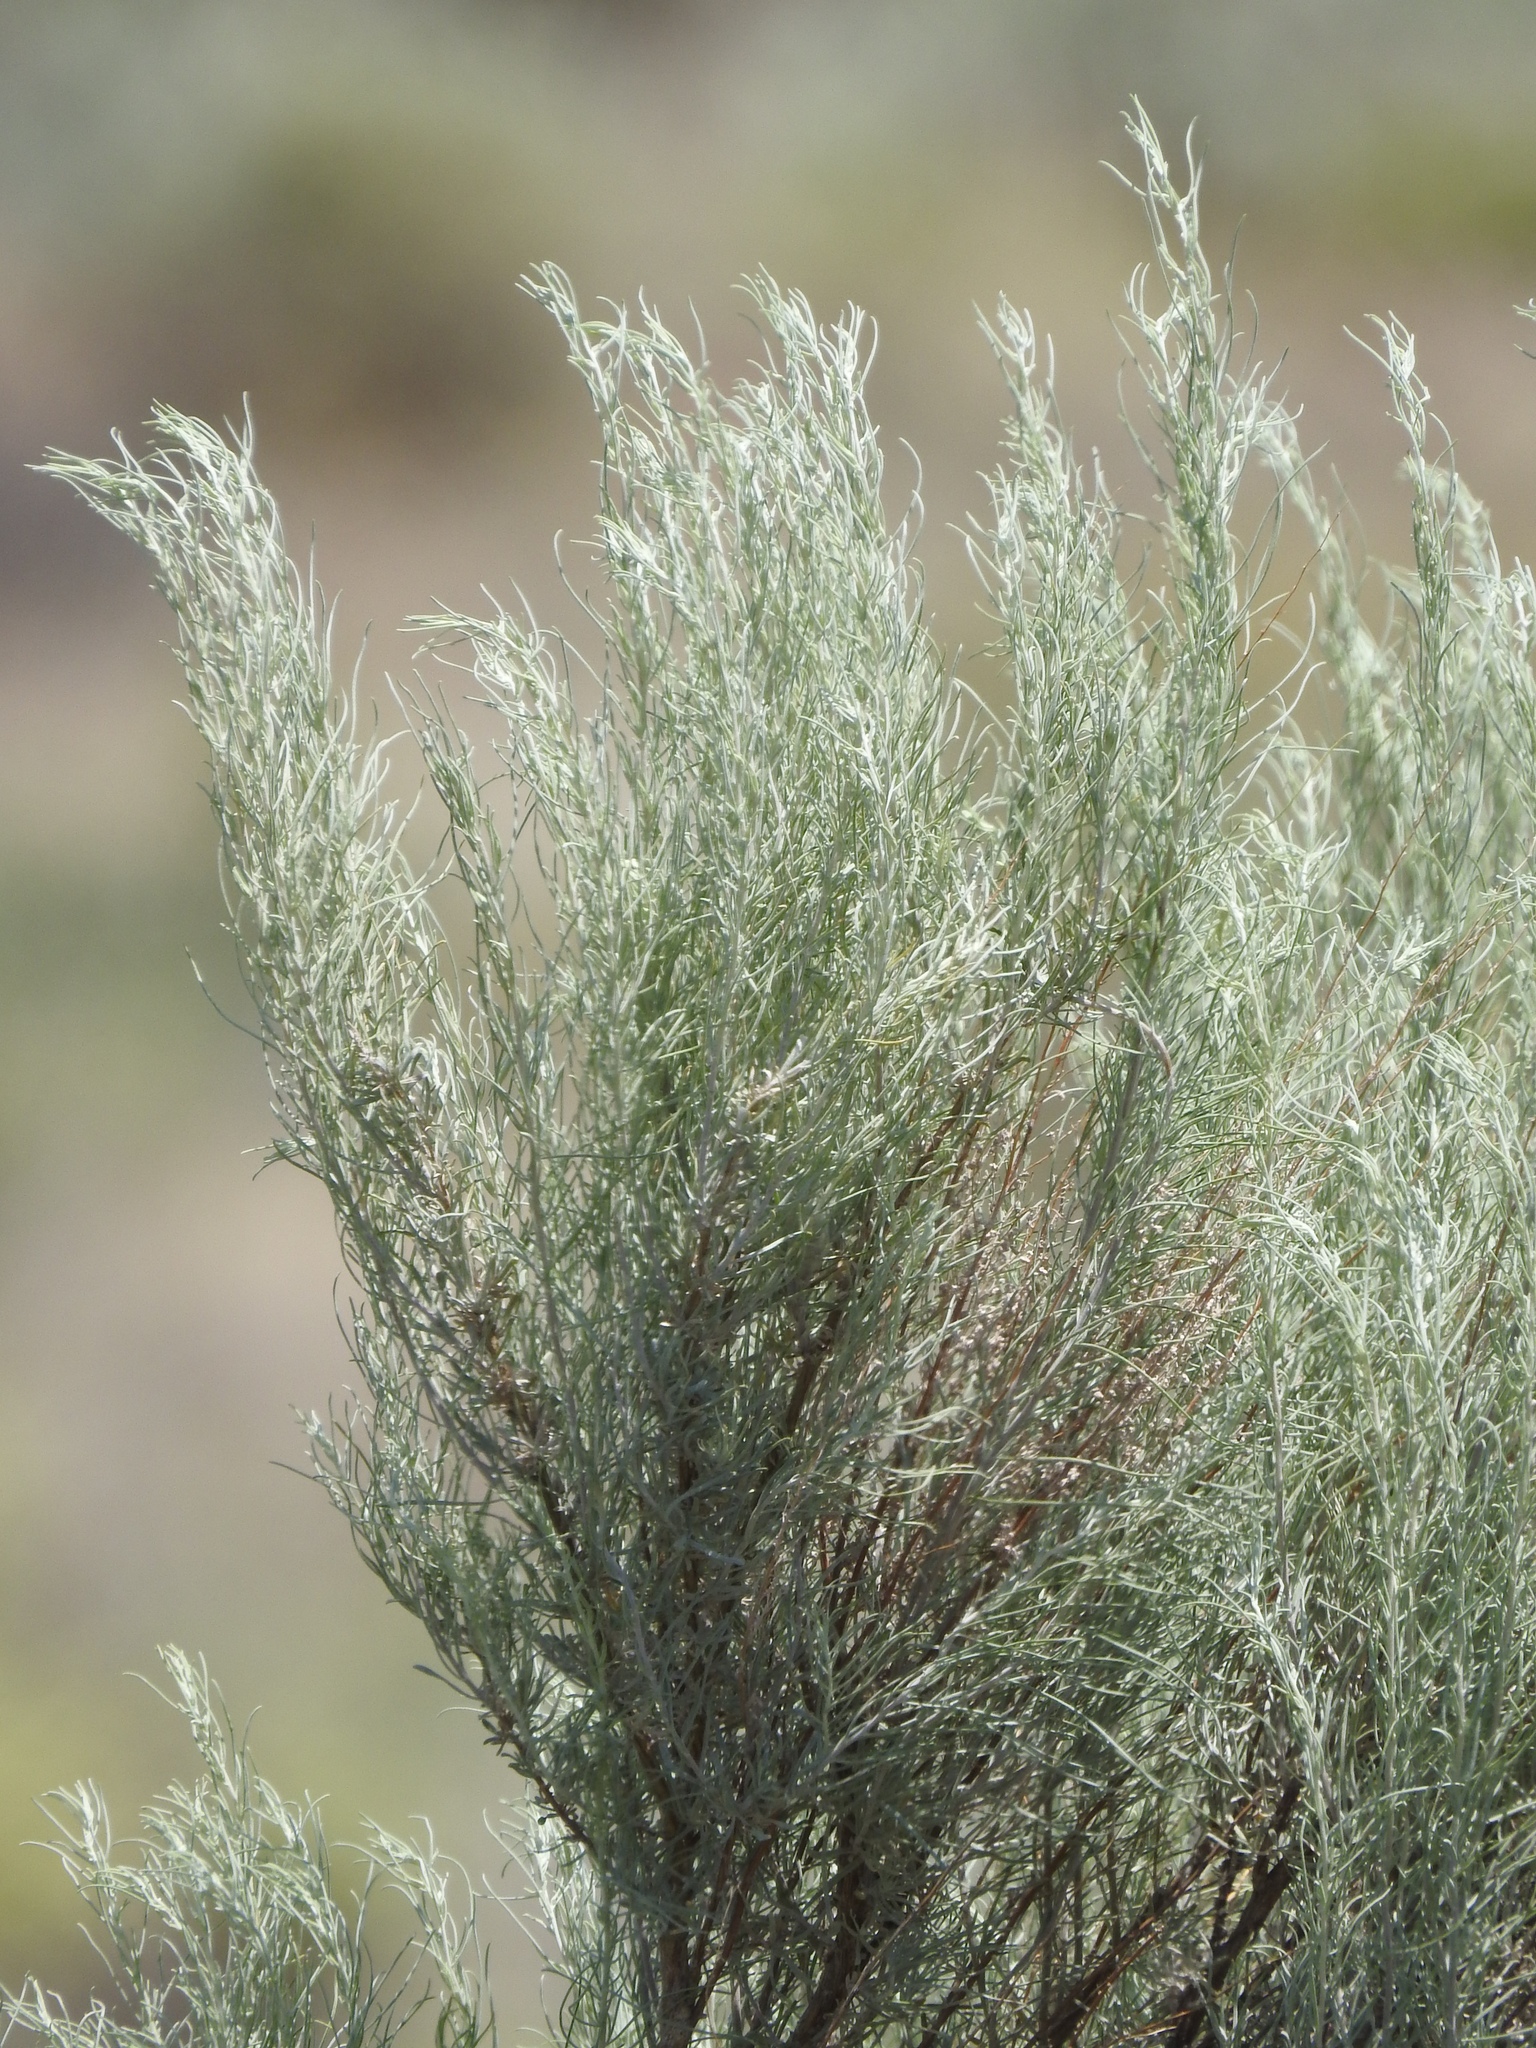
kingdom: Plantae
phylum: Tracheophyta
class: Magnoliopsida
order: Asterales
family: Asteraceae
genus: Artemisia
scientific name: Artemisia filifolia
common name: Sand-sage
